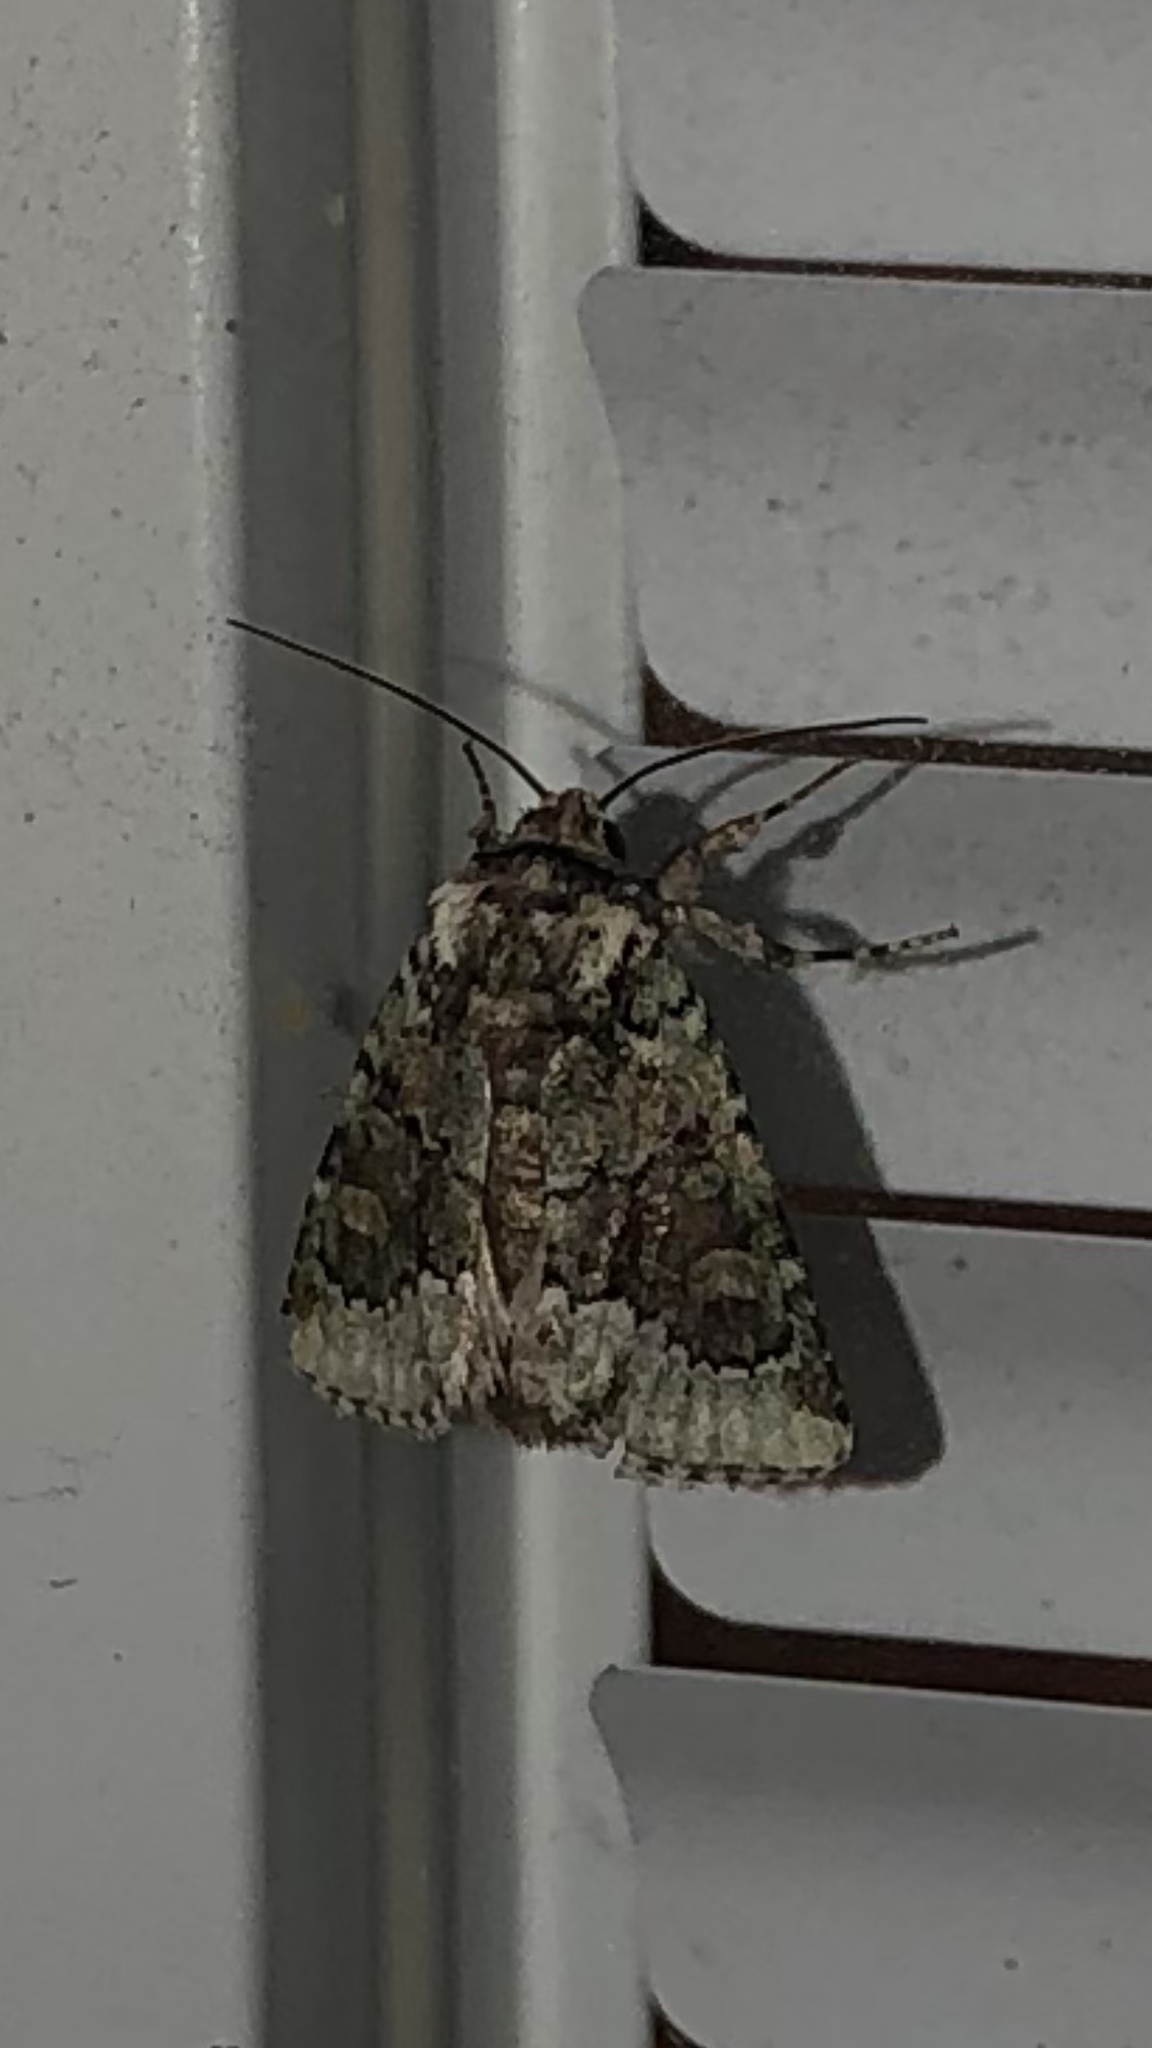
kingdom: Animalia
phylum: Arthropoda
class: Insecta
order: Lepidoptera
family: Noctuidae
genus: Lacinipolia
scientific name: Lacinipolia explicata
